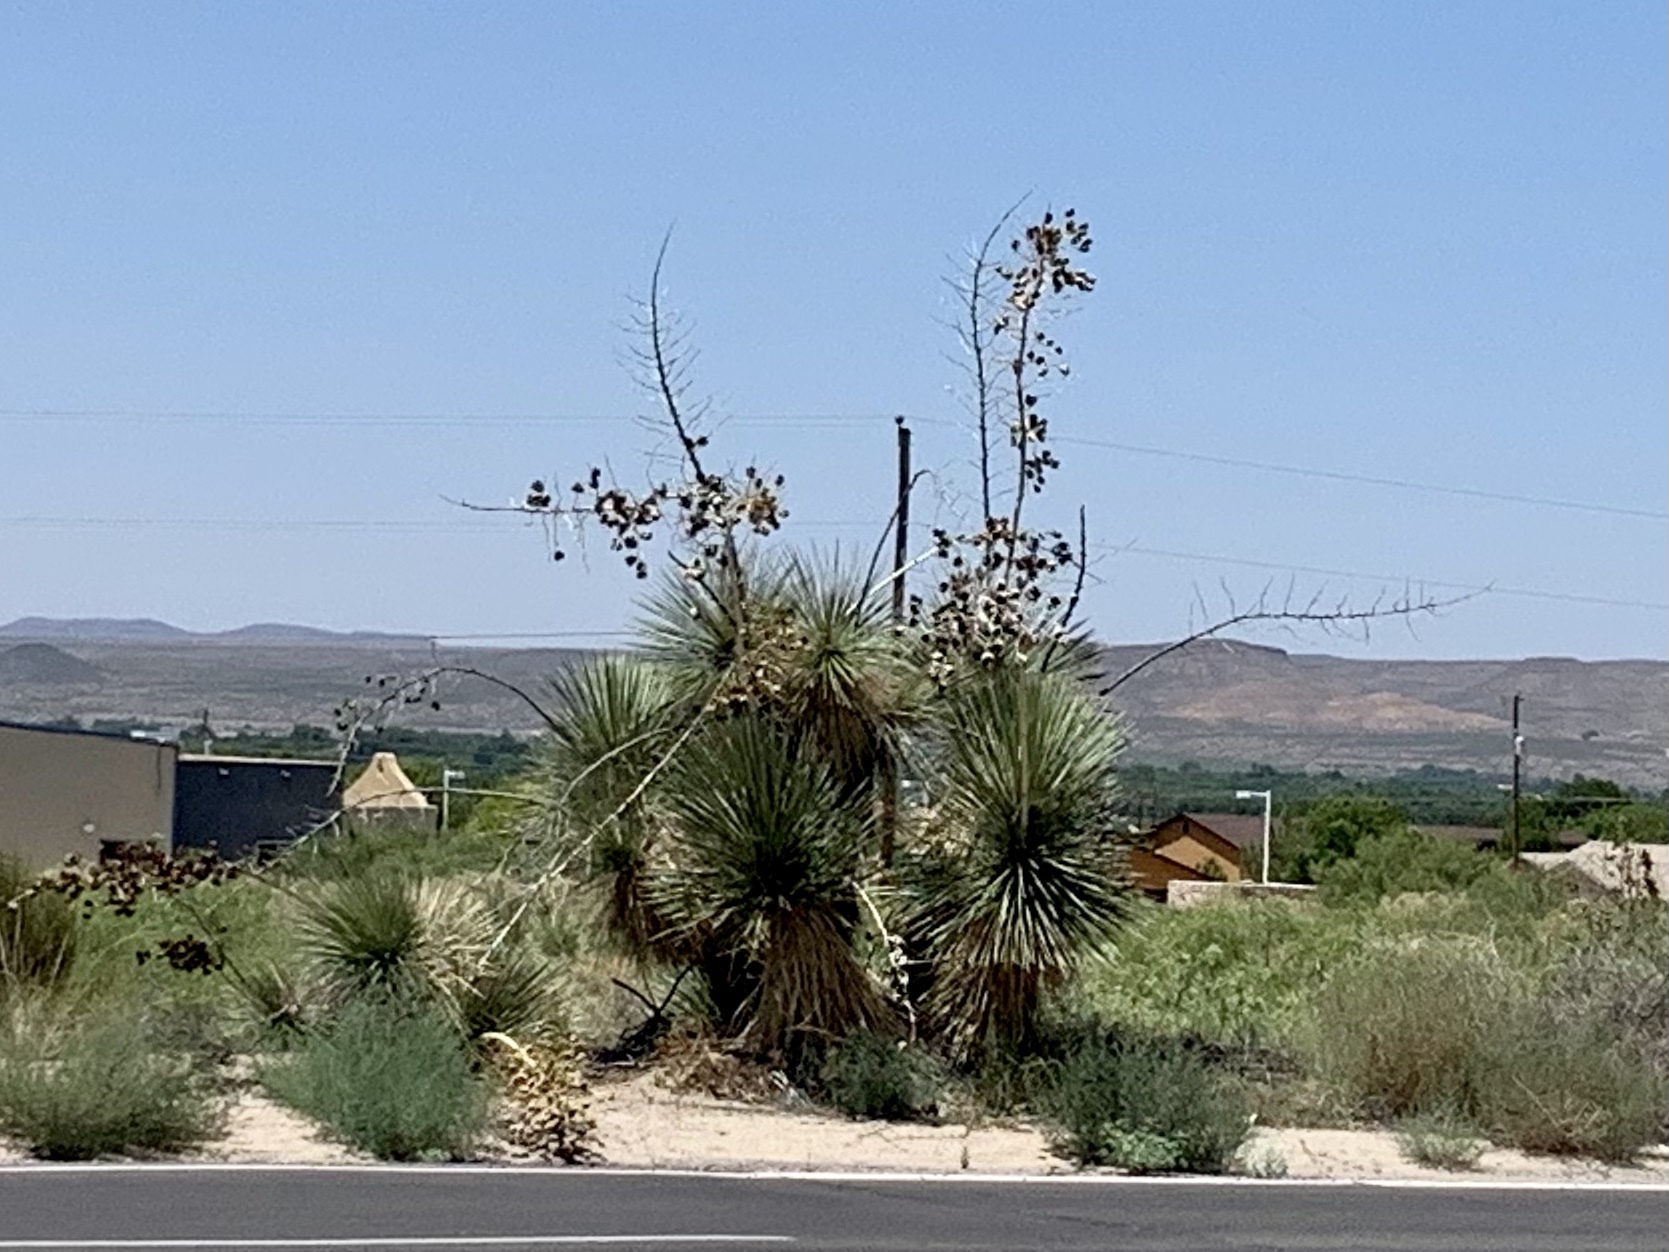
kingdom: Plantae
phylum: Tracheophyta
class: Liliopsida
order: Asparagales
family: Asparagaceae
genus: Yucca
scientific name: Yucca elata
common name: Palmella
